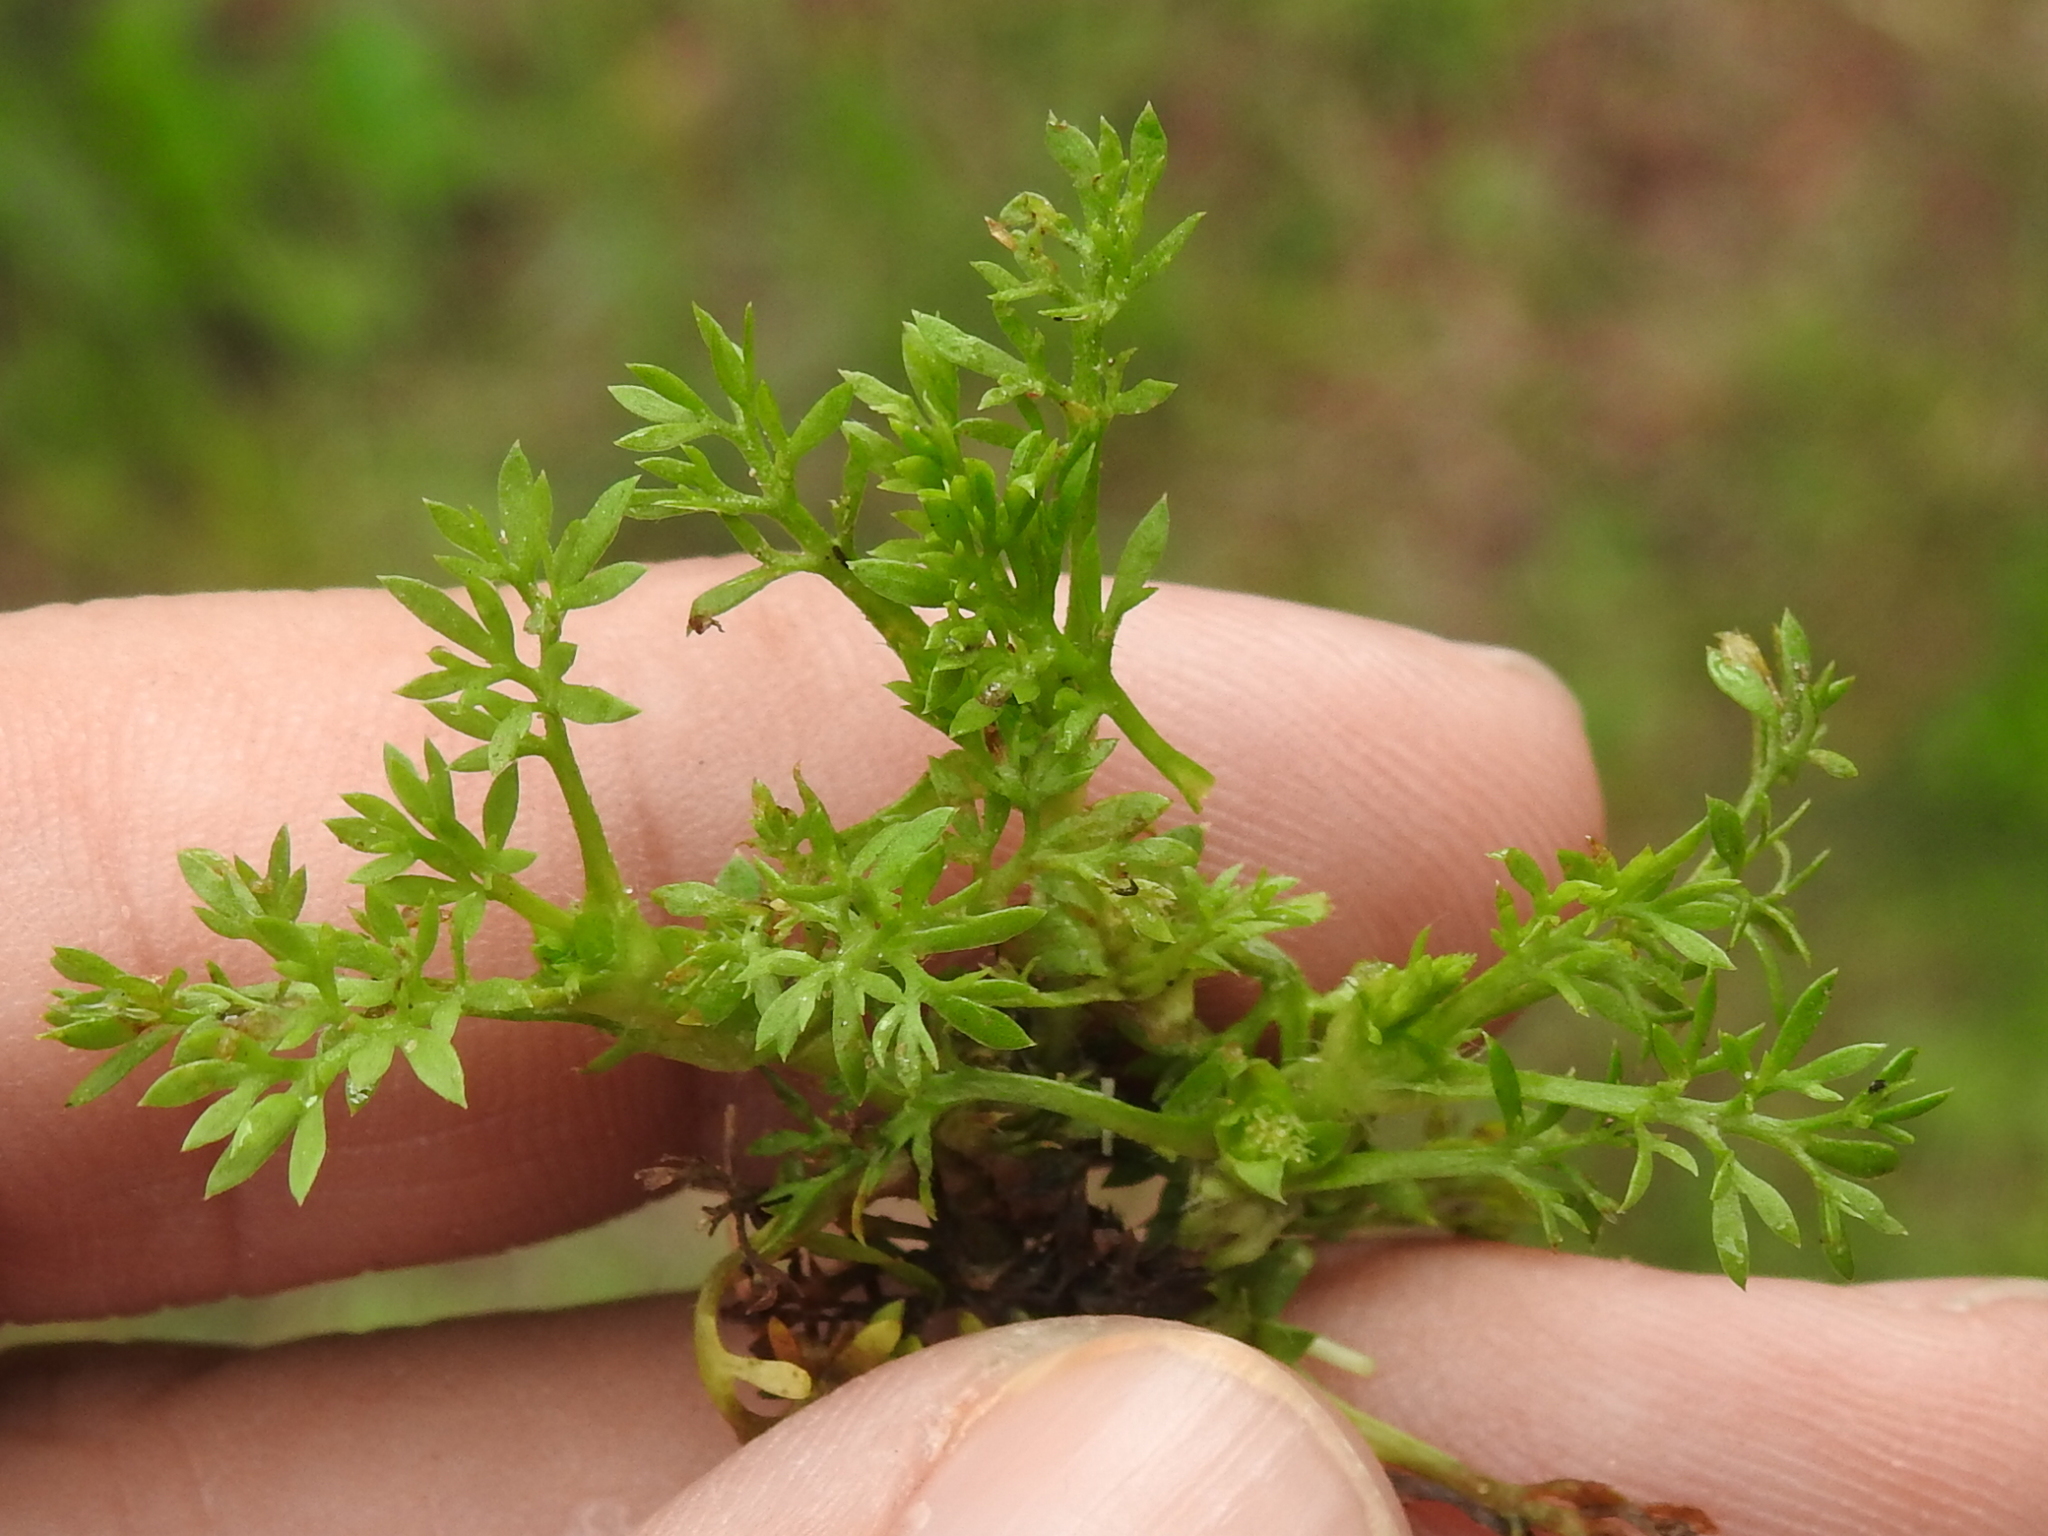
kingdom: Plantae
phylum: Tracheophyta
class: Magnoliopsida
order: Asterales
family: Asteraceae
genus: Soliva
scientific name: Soliva sessilis
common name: Field burrweed
